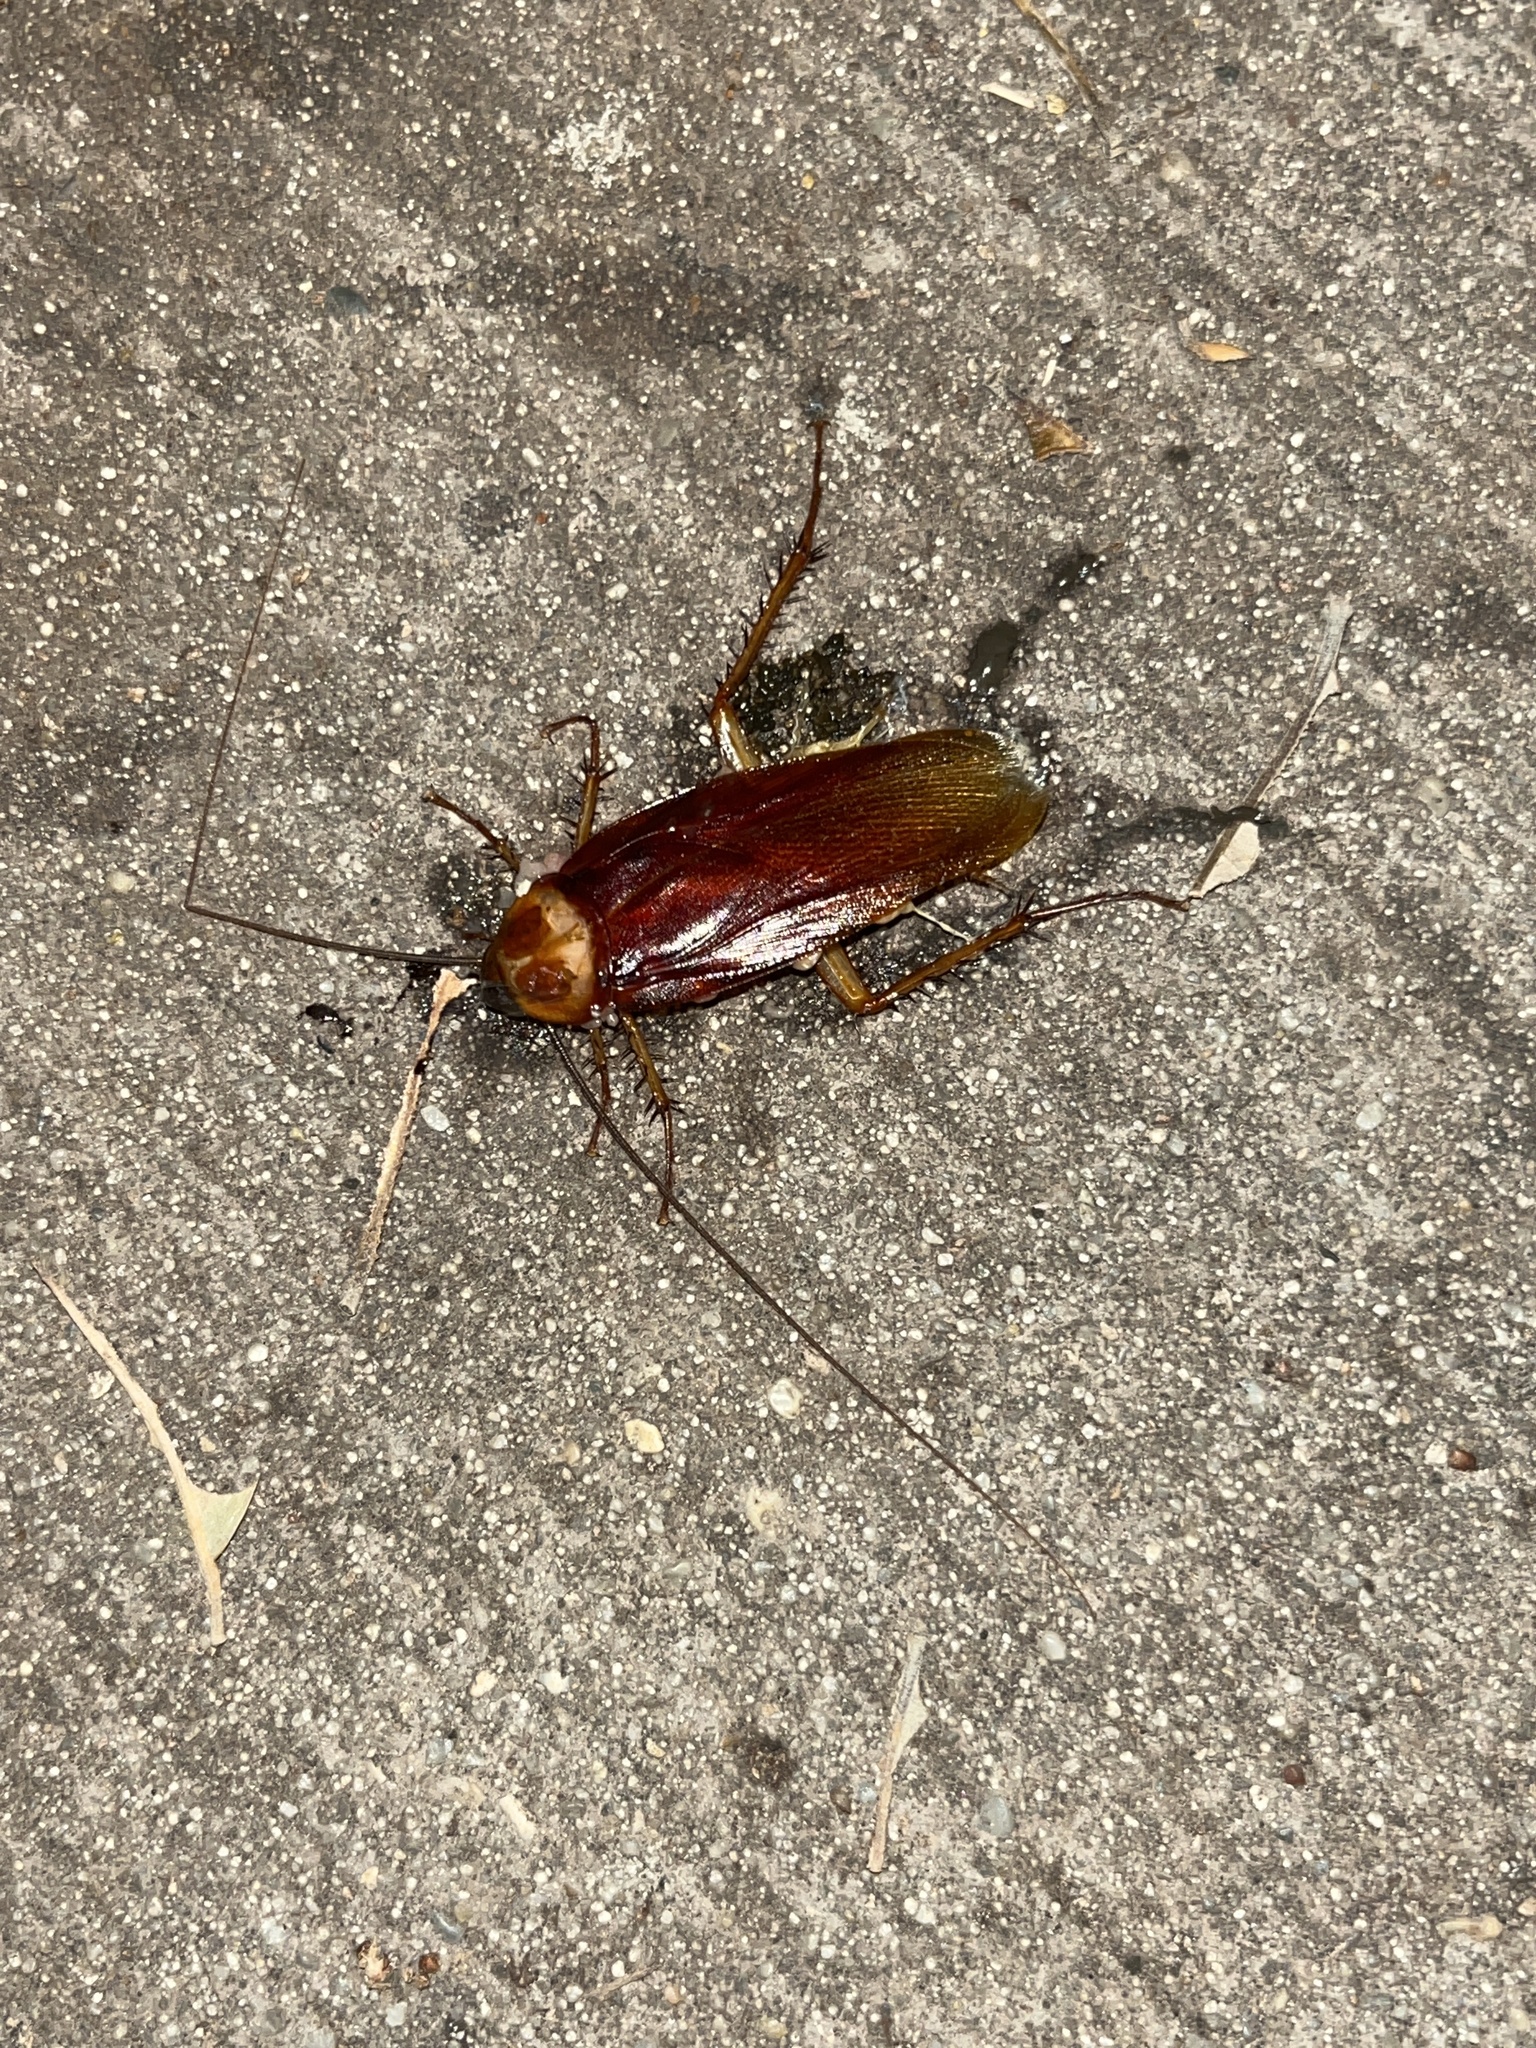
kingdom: Animalia
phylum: Arthropoda
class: Insecta
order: Blattodea
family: Blattidae
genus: Periplaneta
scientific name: Periplaneta americana
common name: American cockroach
